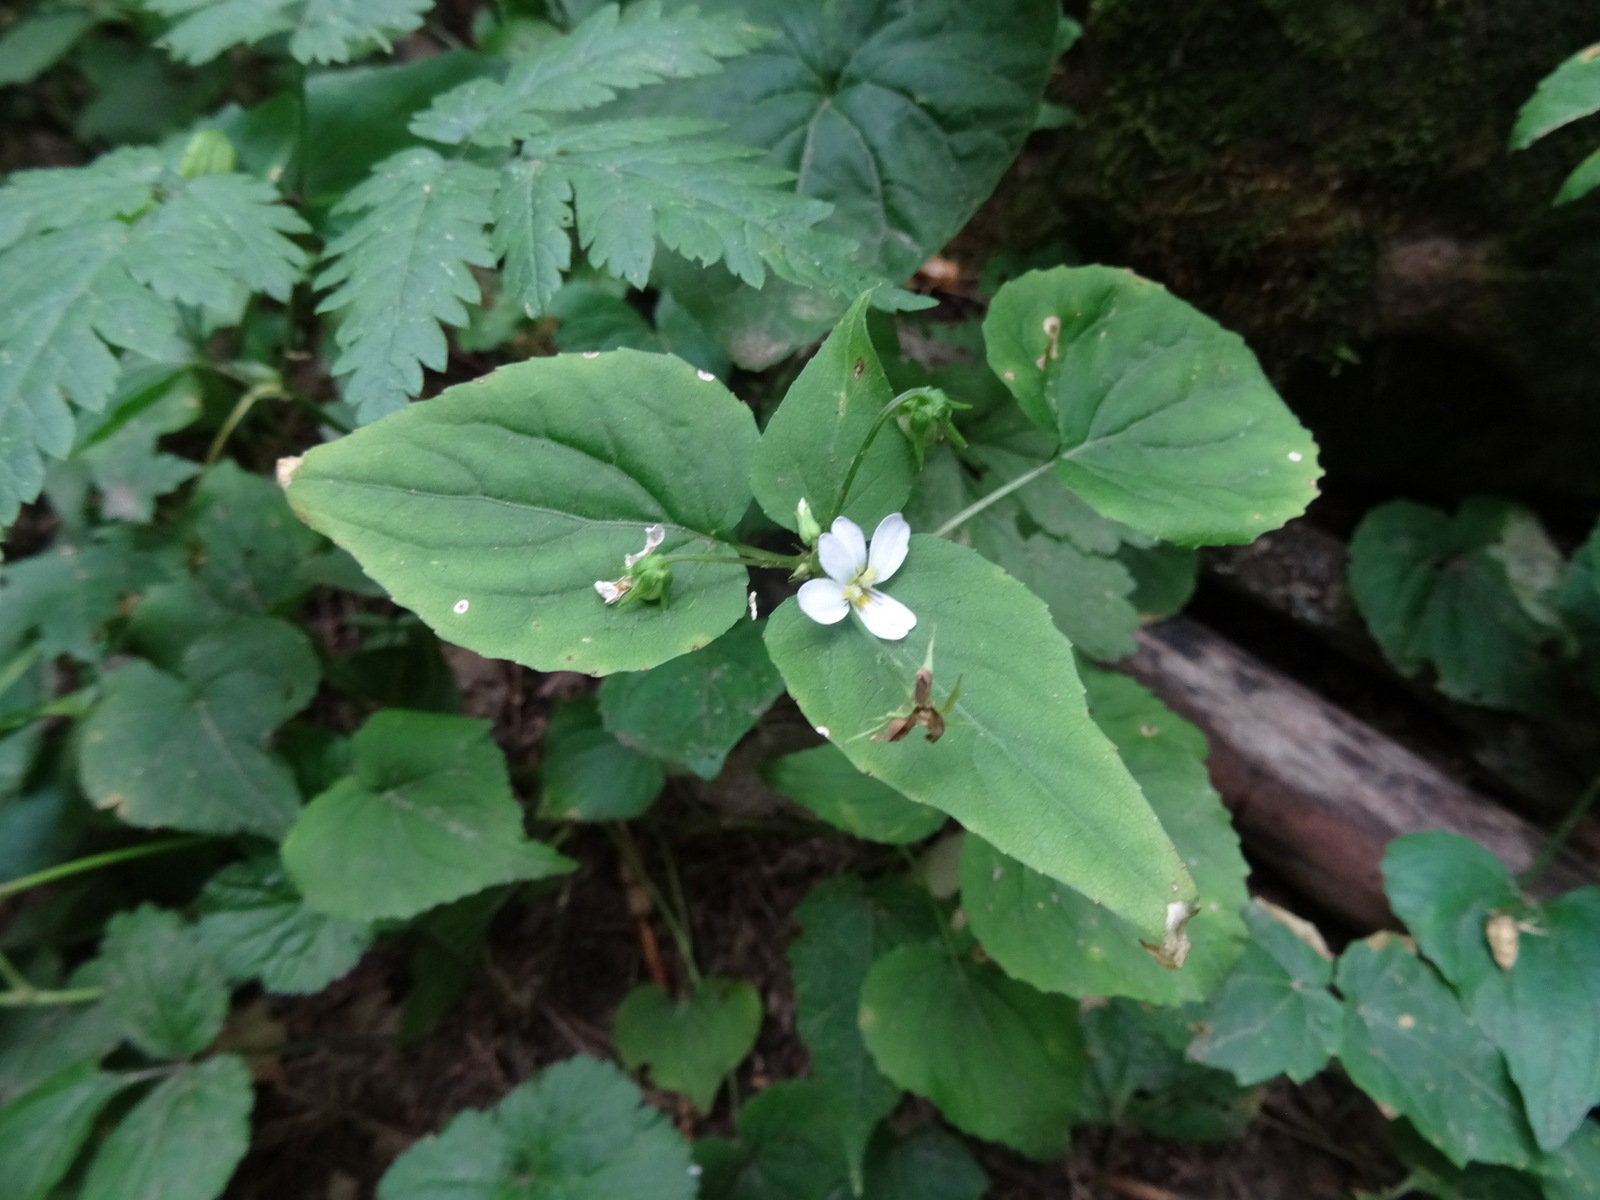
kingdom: Plantae
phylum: Tracheophyta
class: Magnoliopsida
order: Malpighiales
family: Violaceae
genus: Viola
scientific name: Viola canadensis
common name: Canada violet
